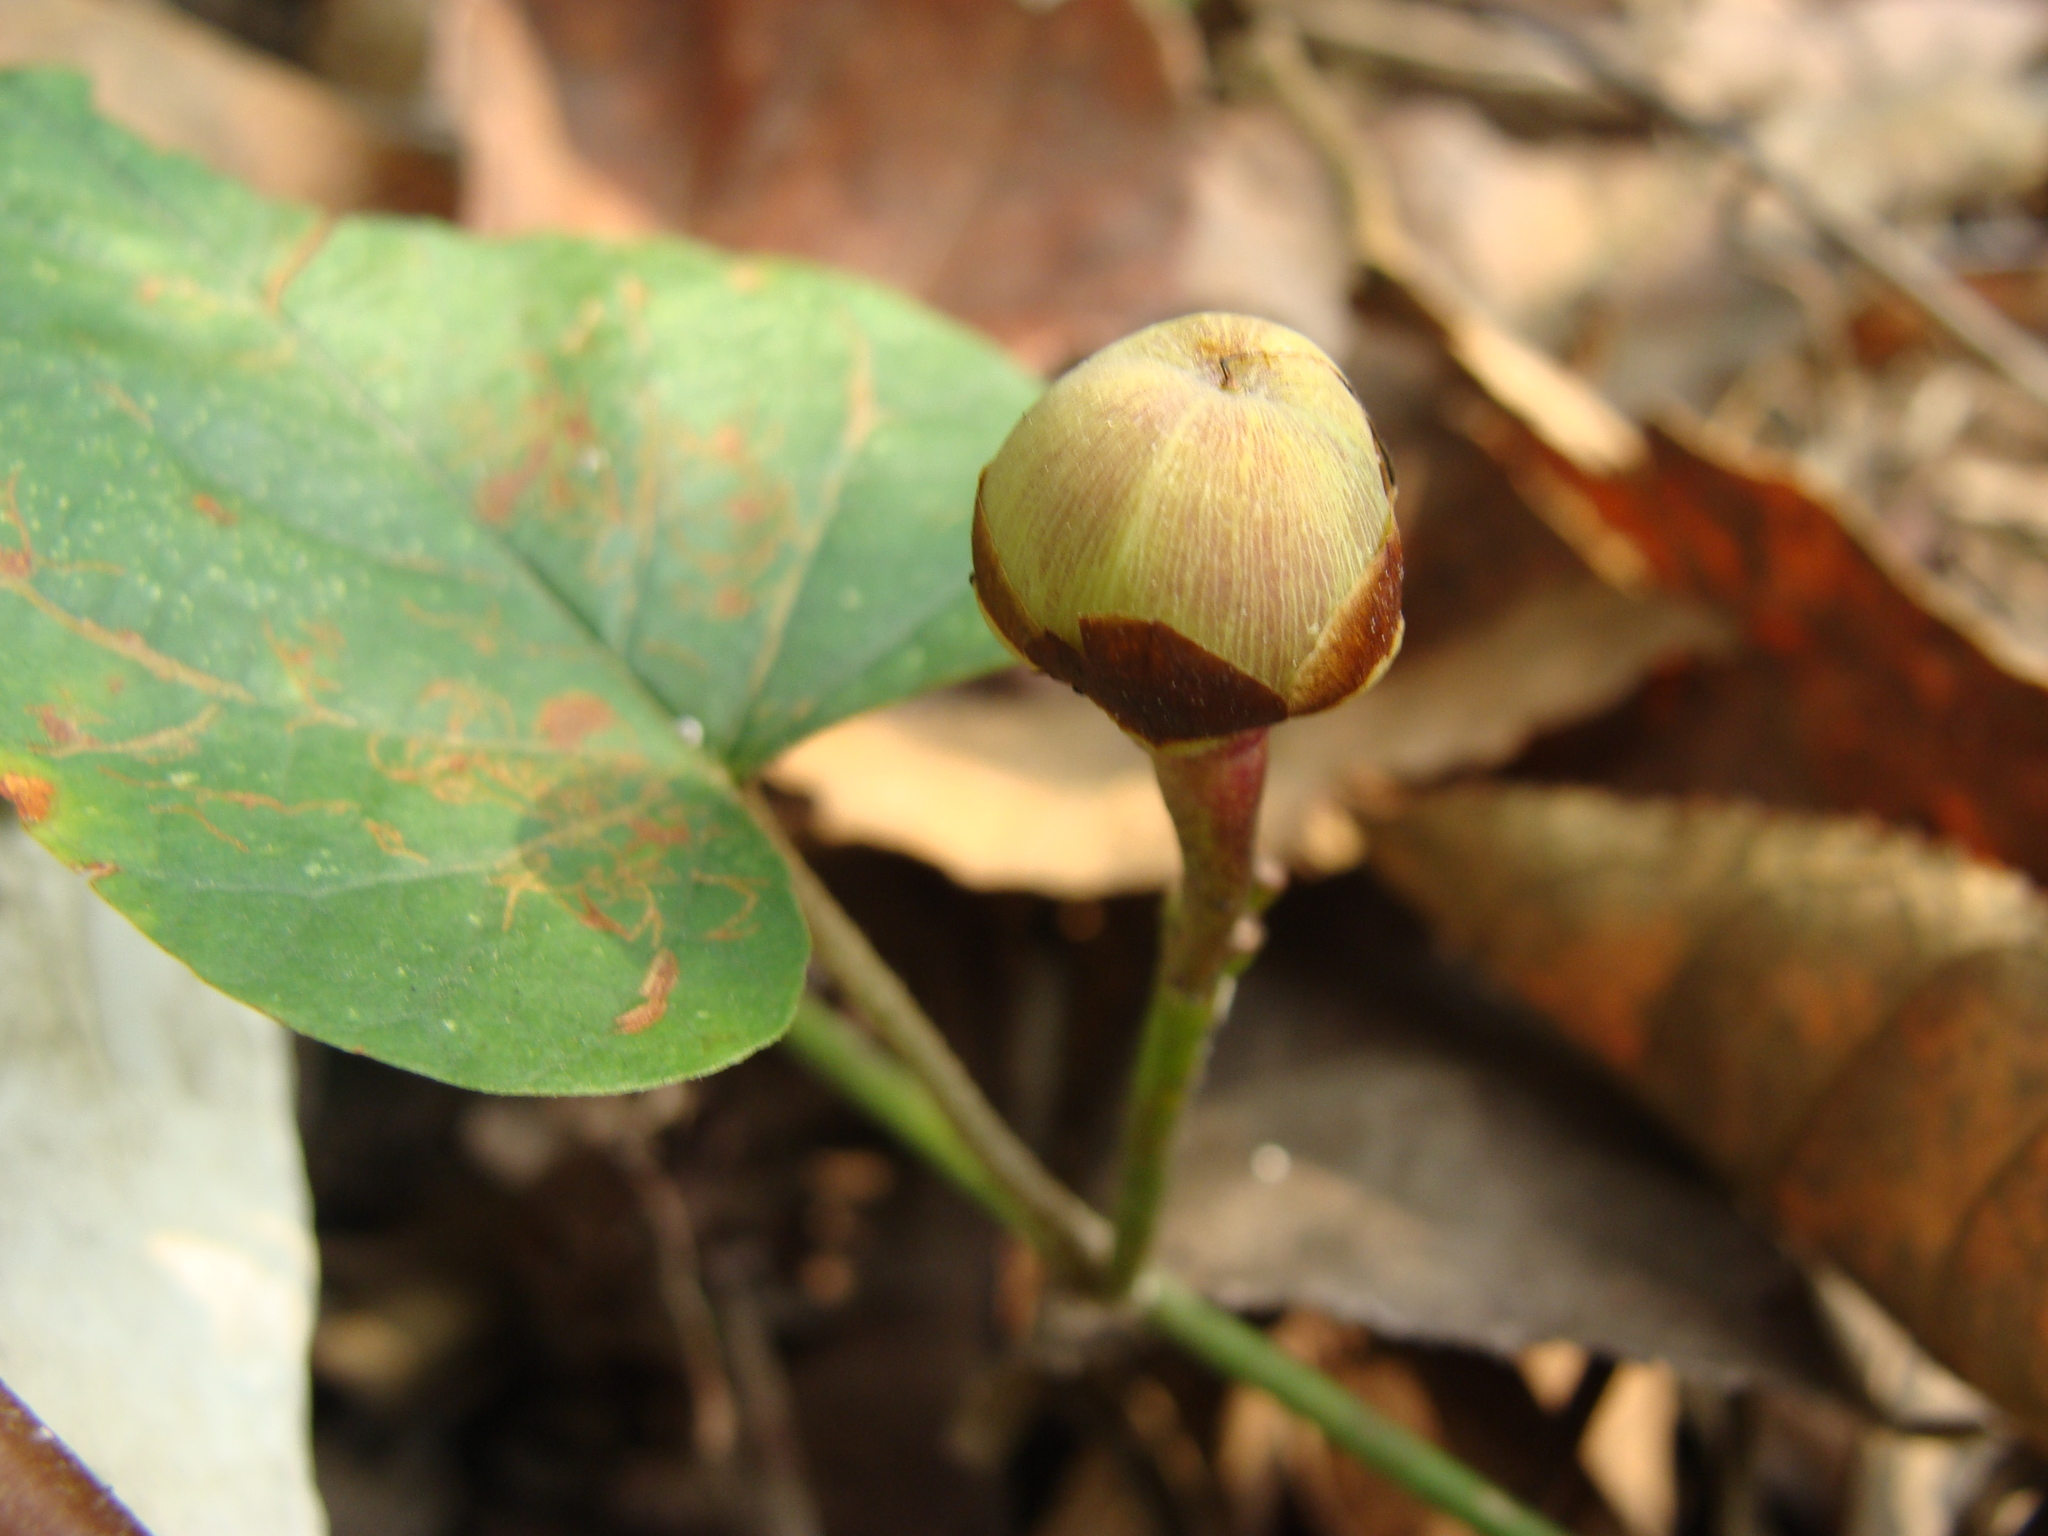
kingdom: Plantae
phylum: Tracheophyta
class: Magnoliopsida
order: Solanales
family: Convolvulaceae
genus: Camonea
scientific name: Camonea umbellata
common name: Hogvine
